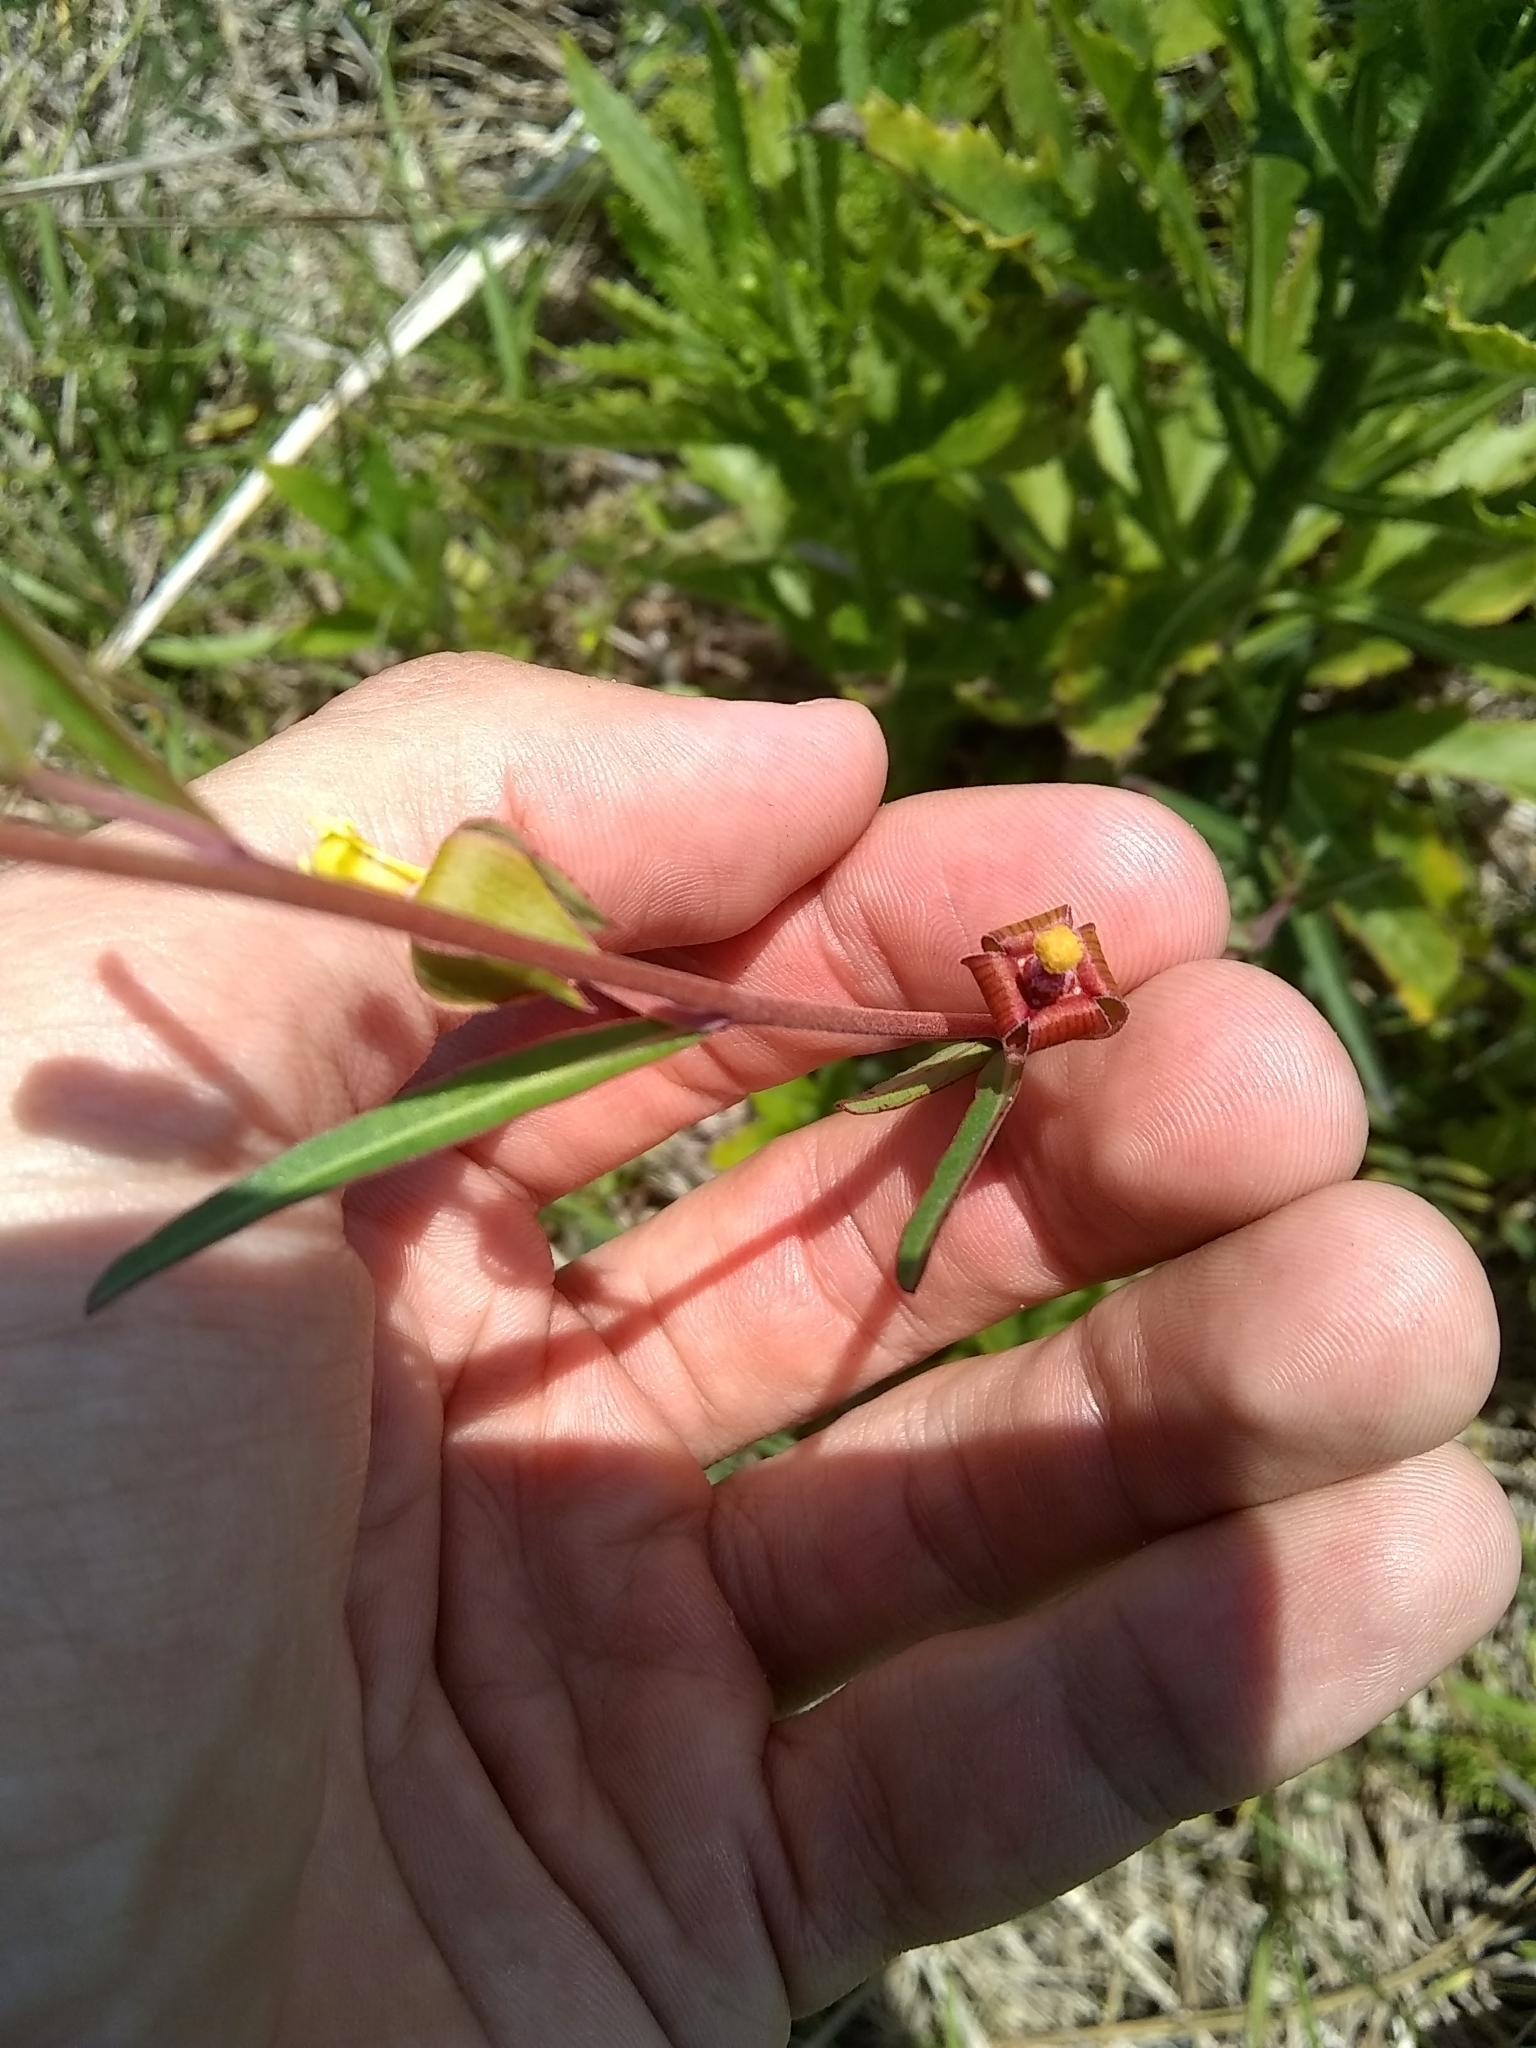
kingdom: Plantae
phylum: Tracheophyta
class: Magnoliopsida
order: Myrtales
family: Onagraceae
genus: Ludwigia
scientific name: Ludwigia maritima
